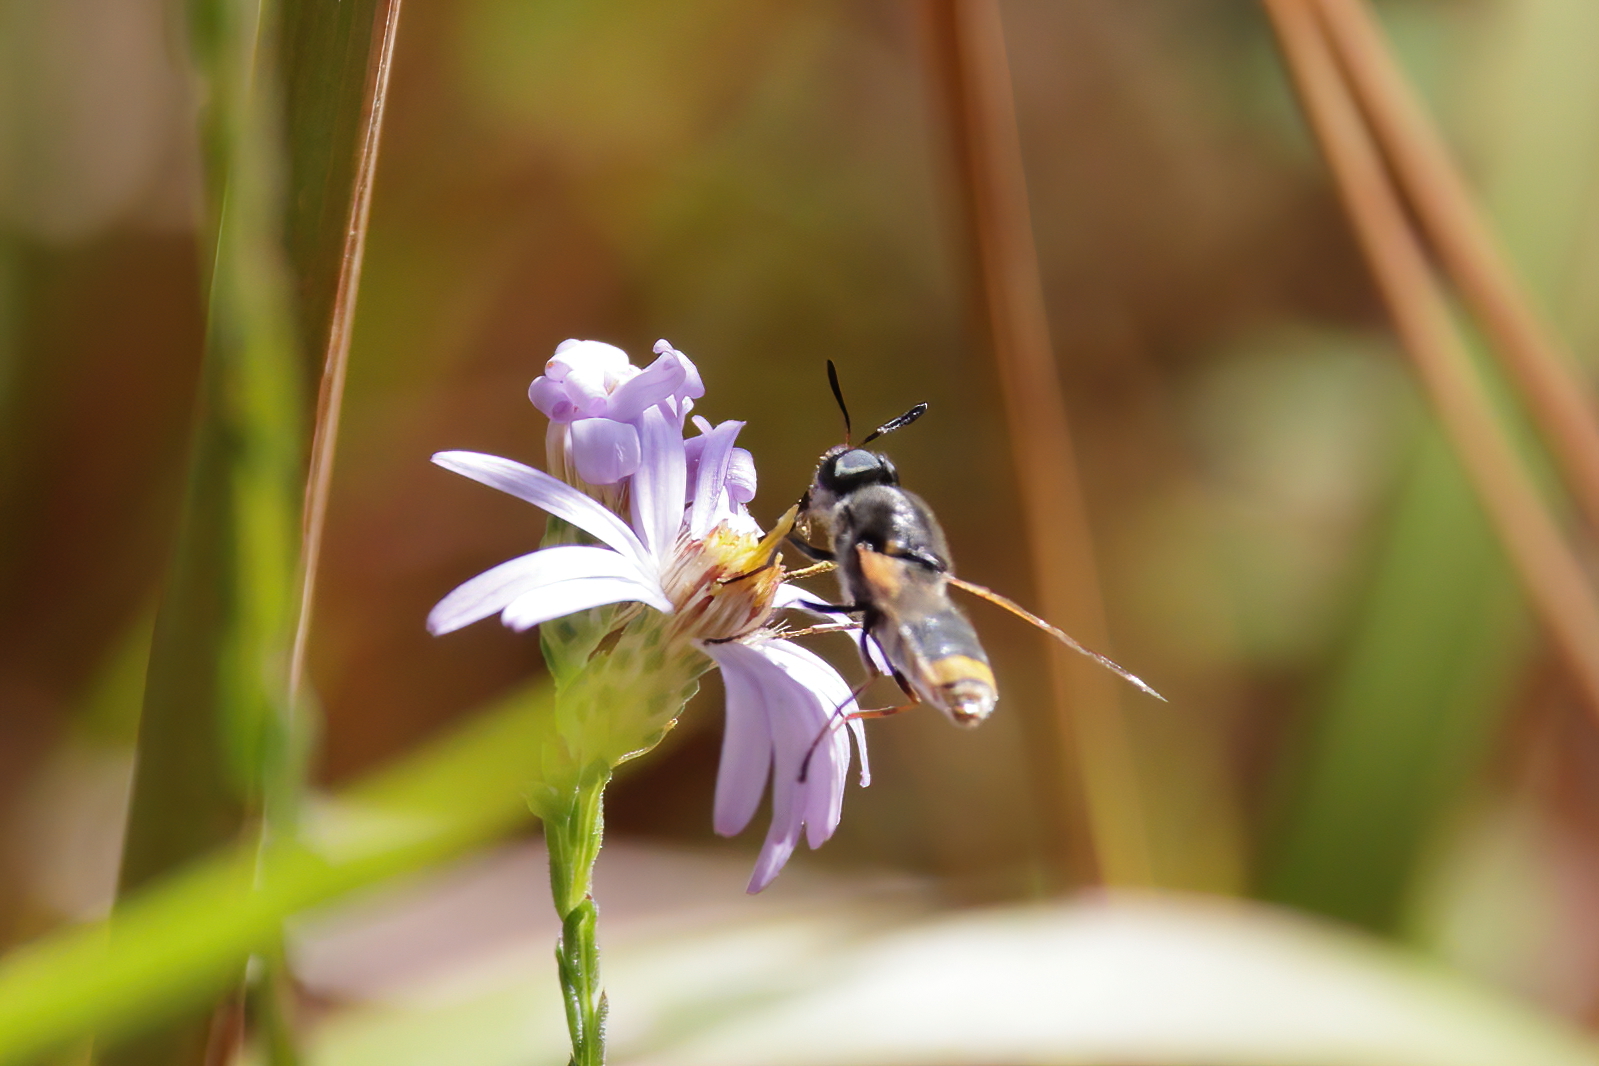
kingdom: Animalia
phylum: Arthropoda
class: Insecta
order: Diptera
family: Stratiomyidae
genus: Hoplitimyia
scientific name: Hoplitimyia mutabilis
